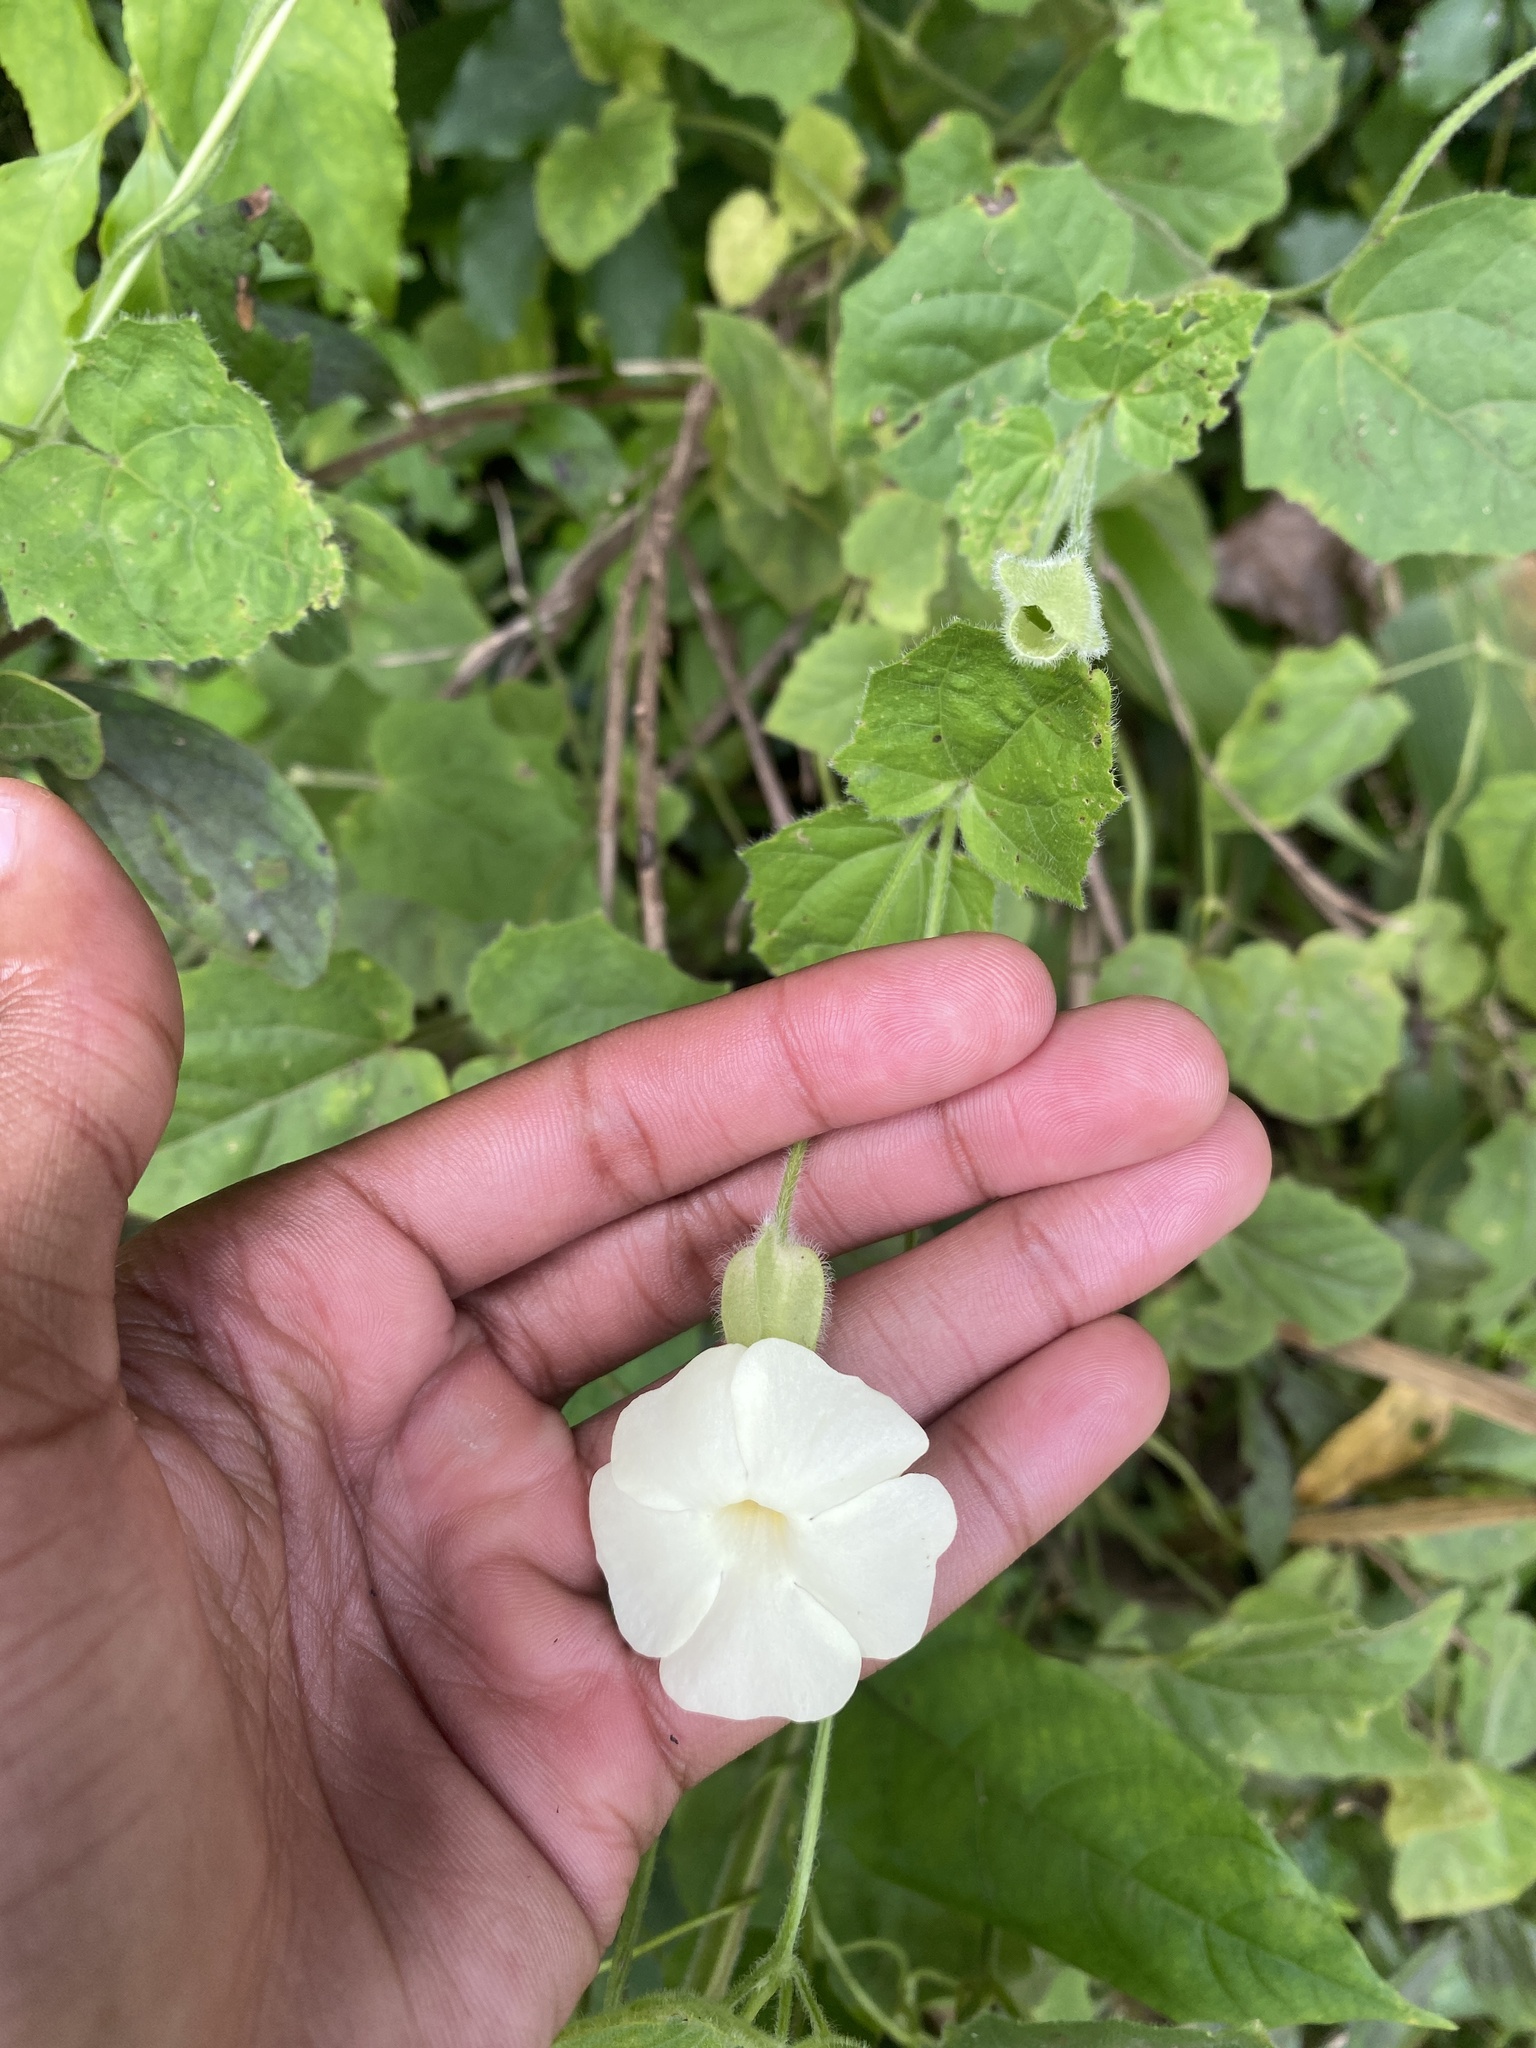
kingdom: Plantae
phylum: Tracheophyta
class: Magnoliopsida
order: Lamiales
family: Acanthaceae
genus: Thunbergia
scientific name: Thunbergia neglecta
